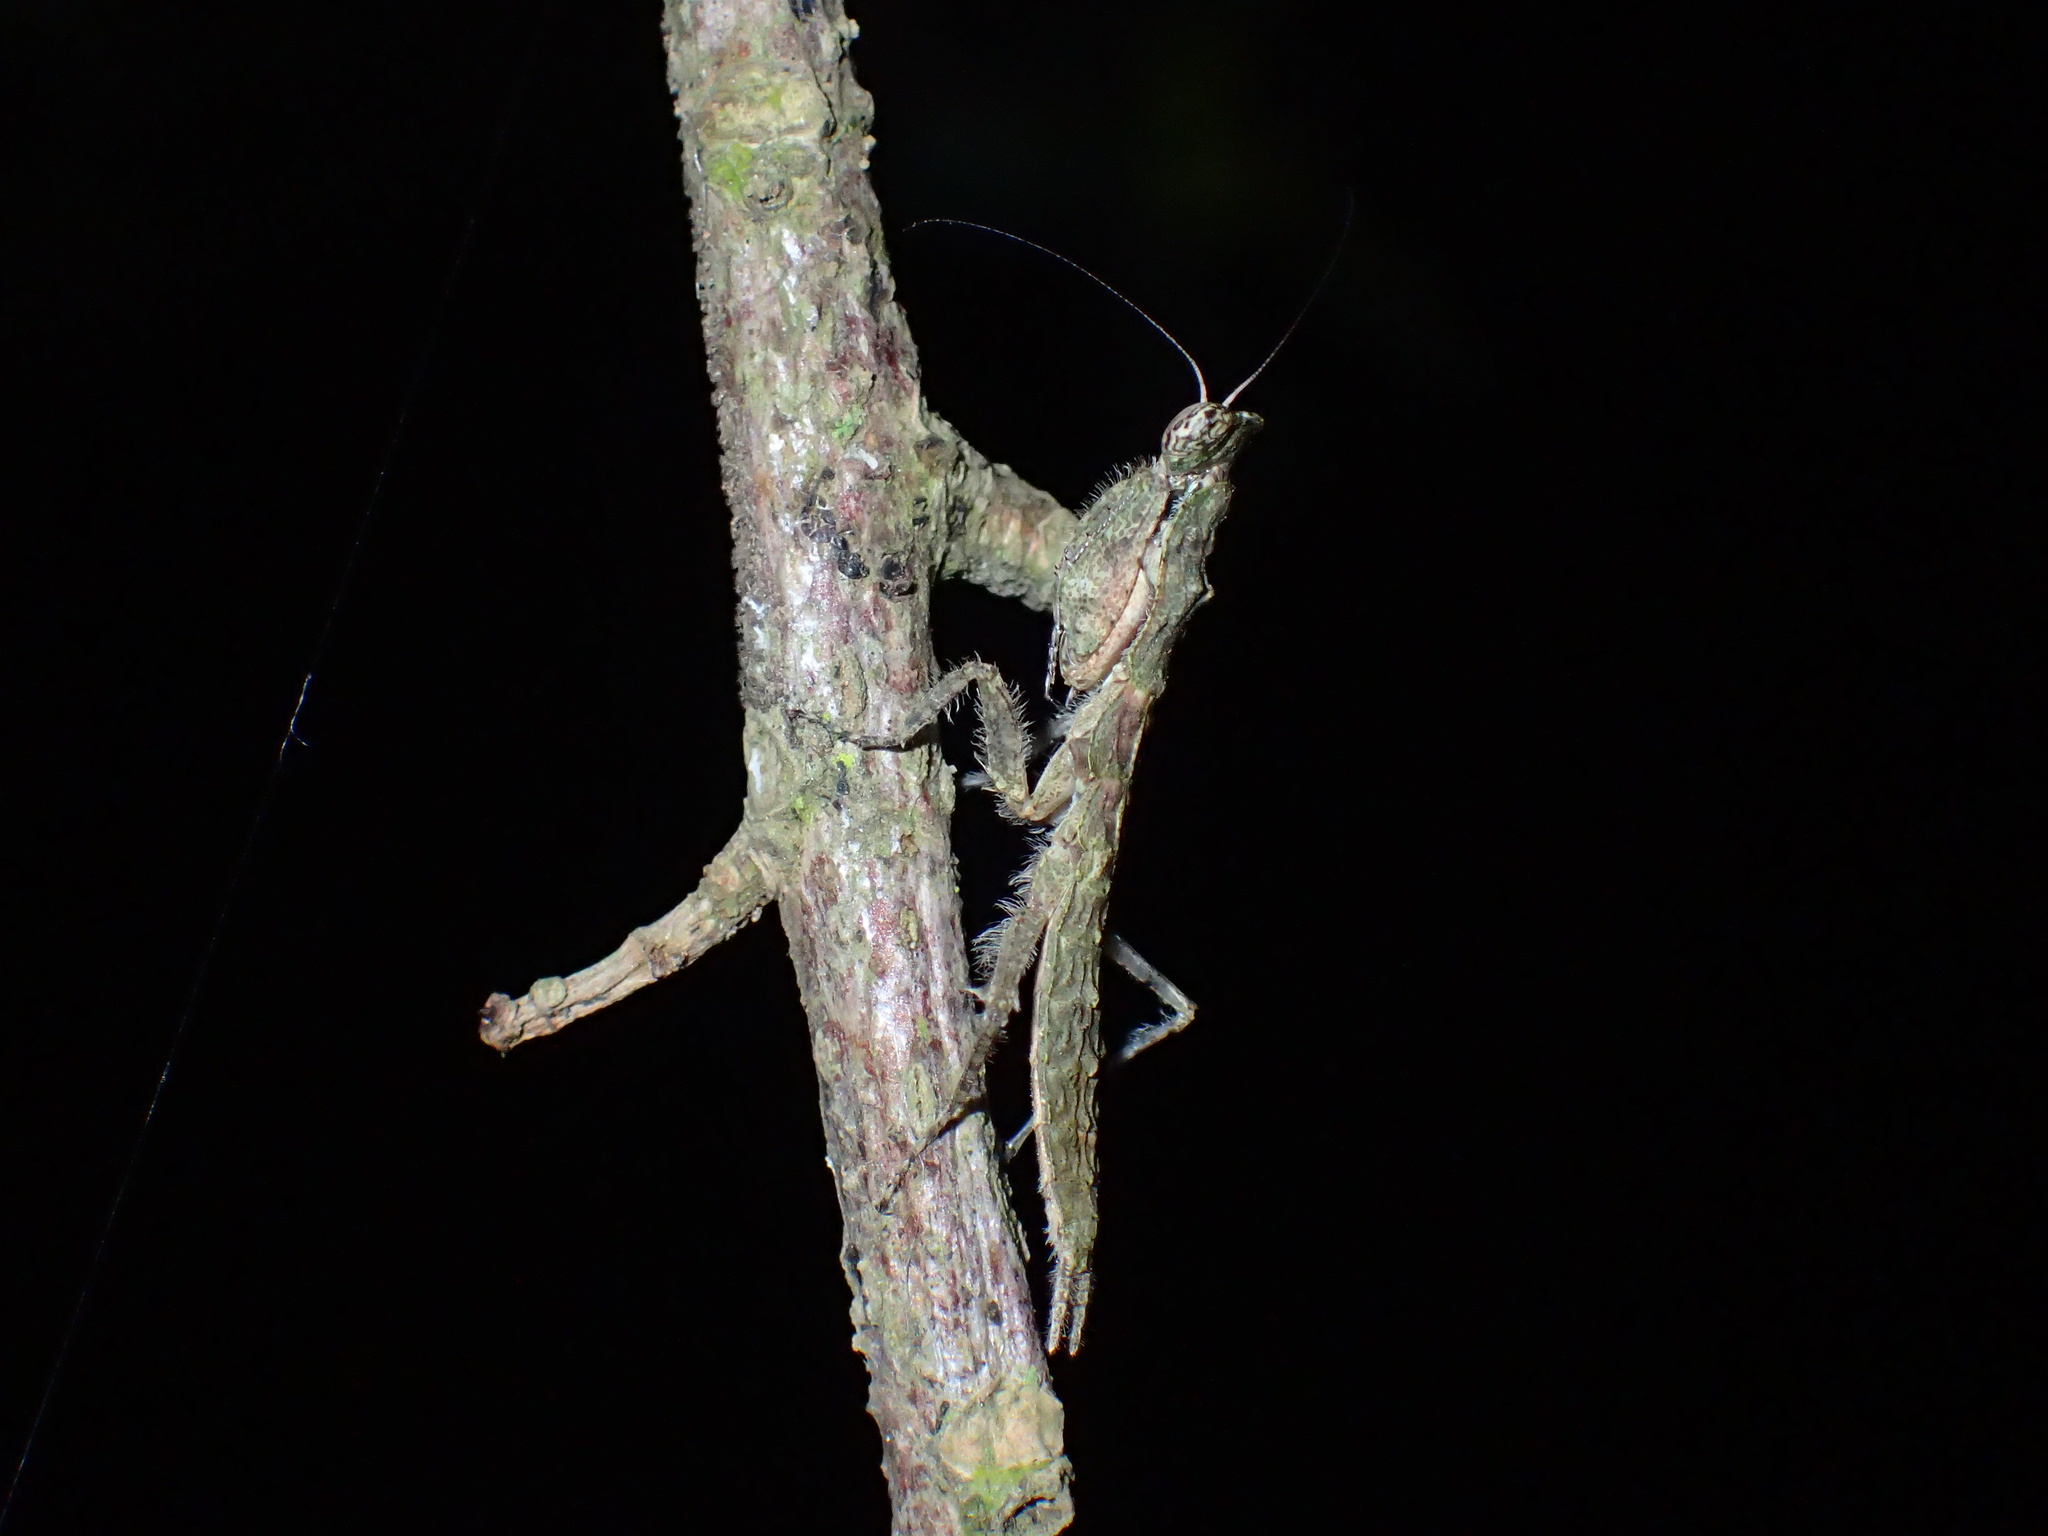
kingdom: Animalia
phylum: Arthropoda
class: Insecta
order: Mantodea
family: Eremiaphilidae
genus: Tarachodes
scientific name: Tarachodes sanctus
